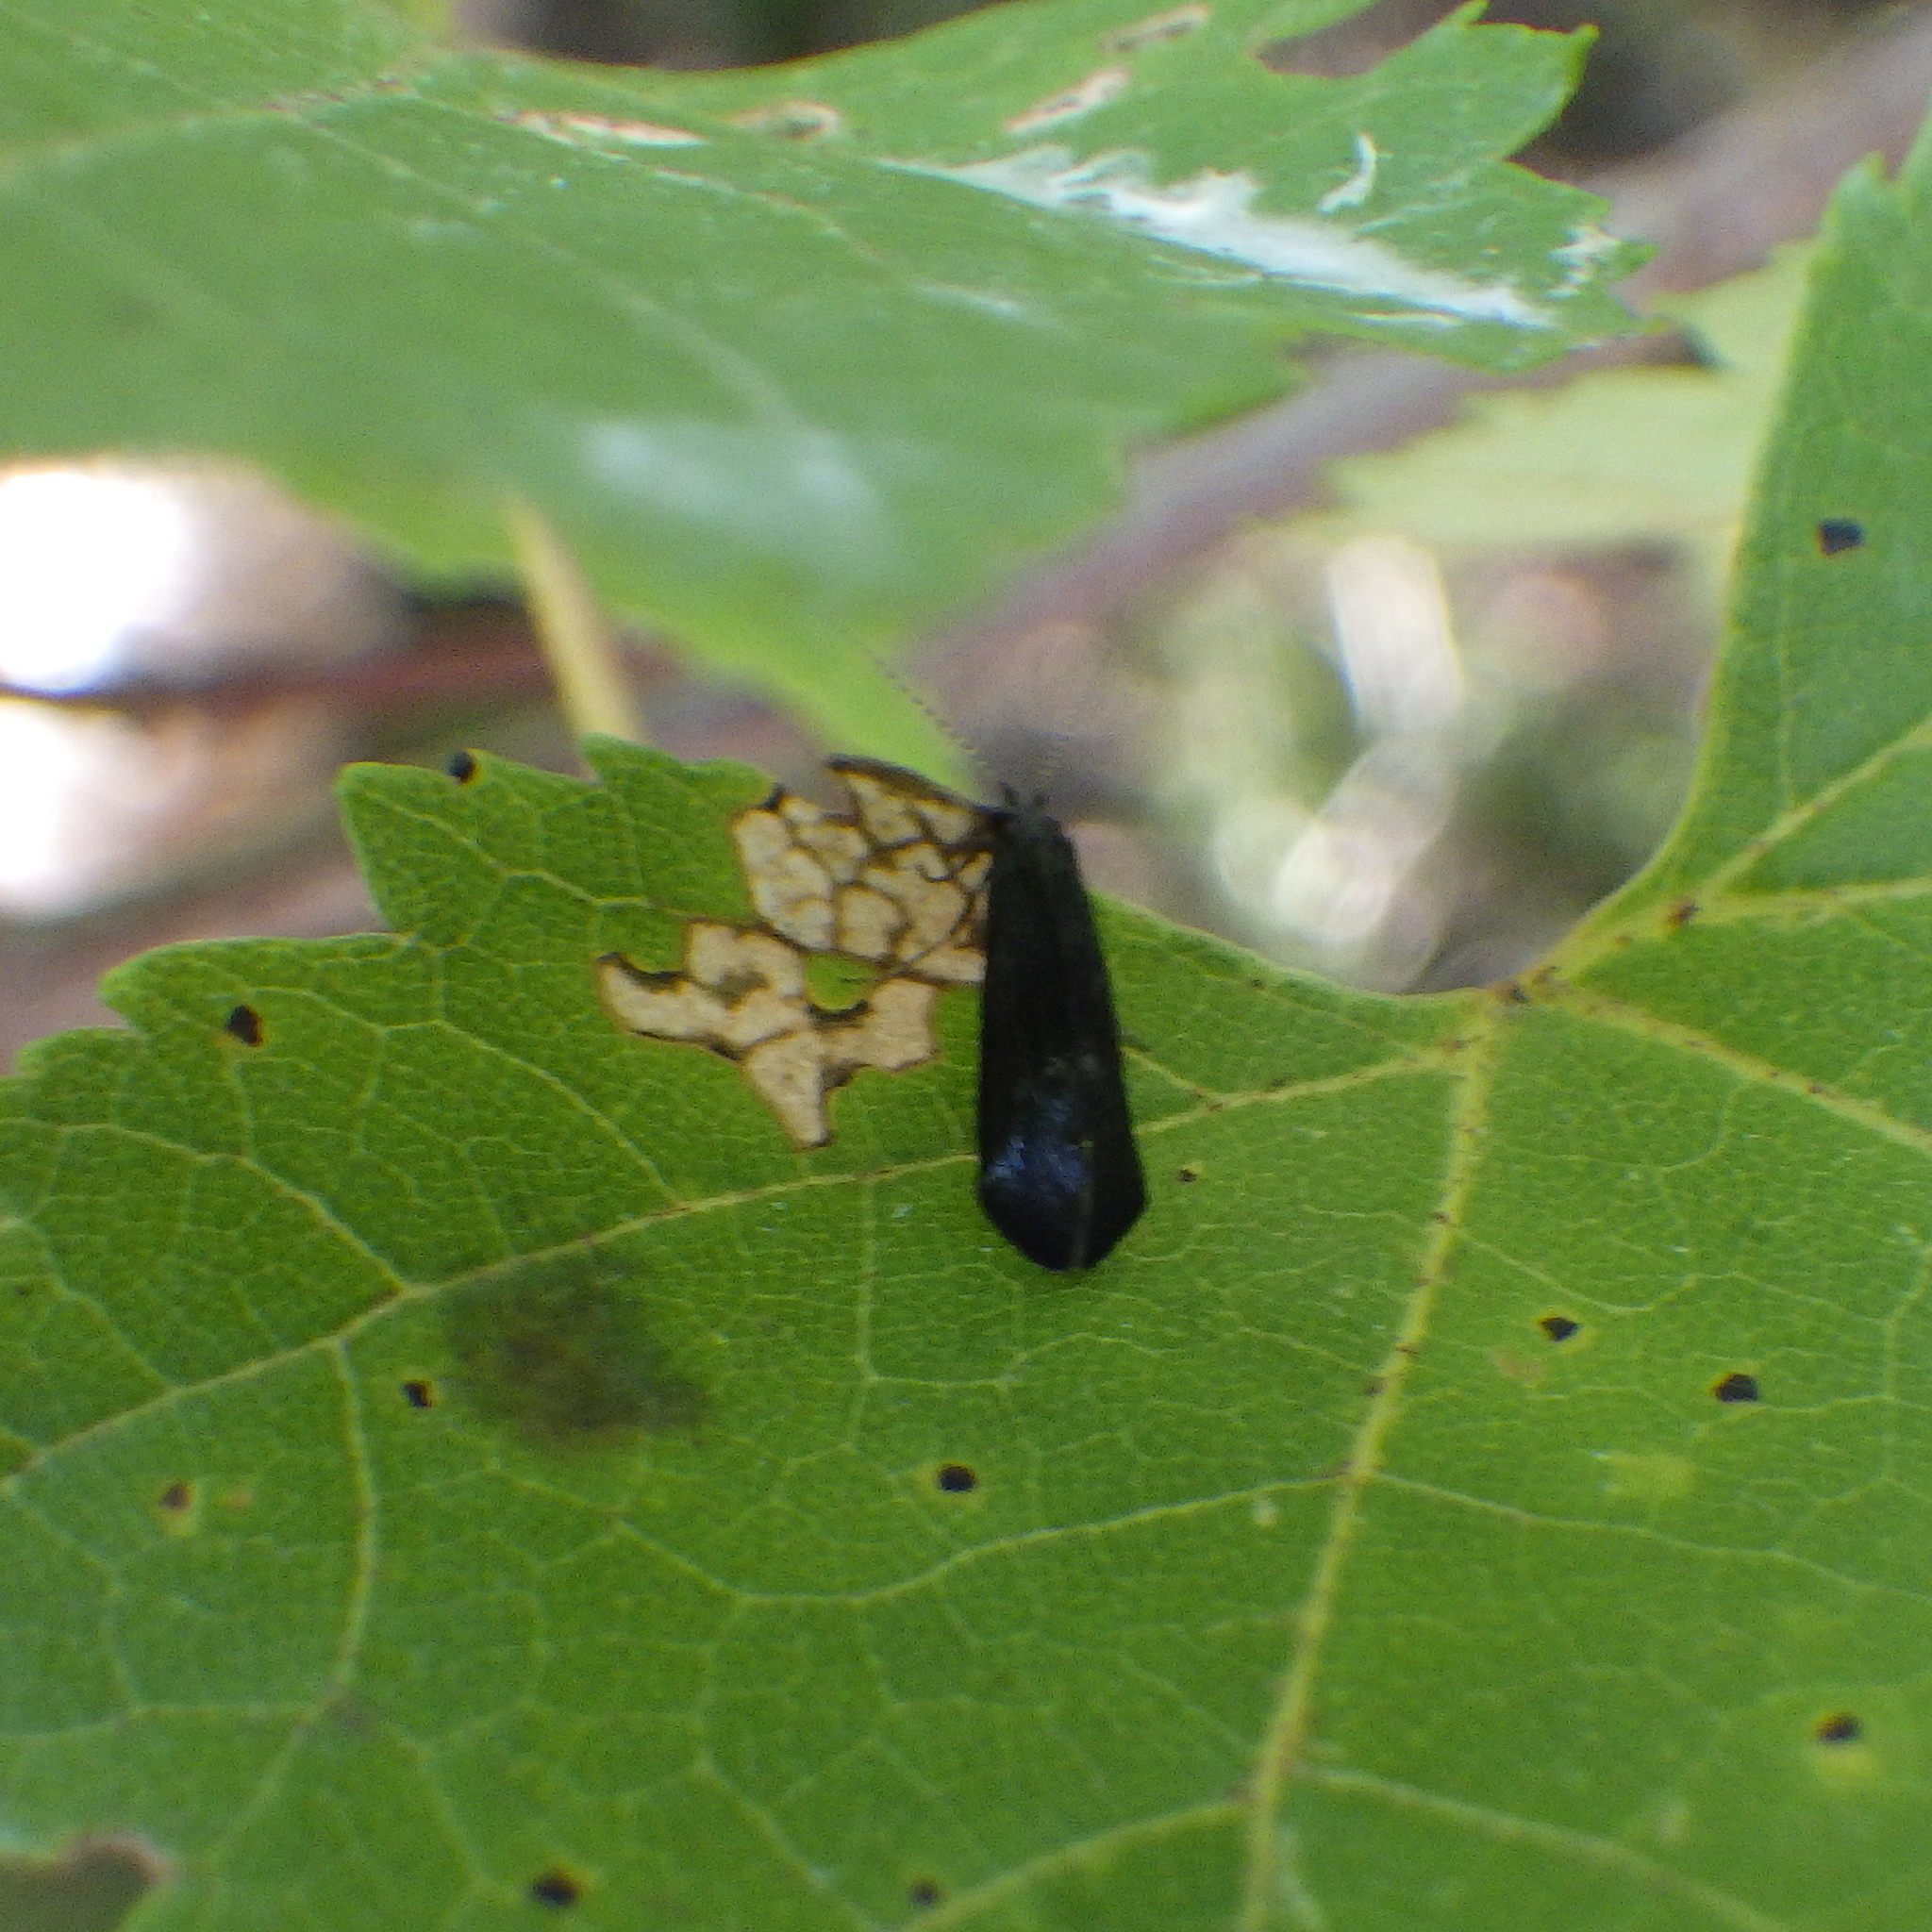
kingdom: Animalia
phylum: Arthropoda
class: Insecta
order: Trichoptera
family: Leptoceridae
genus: Mystacides
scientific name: Mystacides sepulchralis
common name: Black dancer caddisfly
